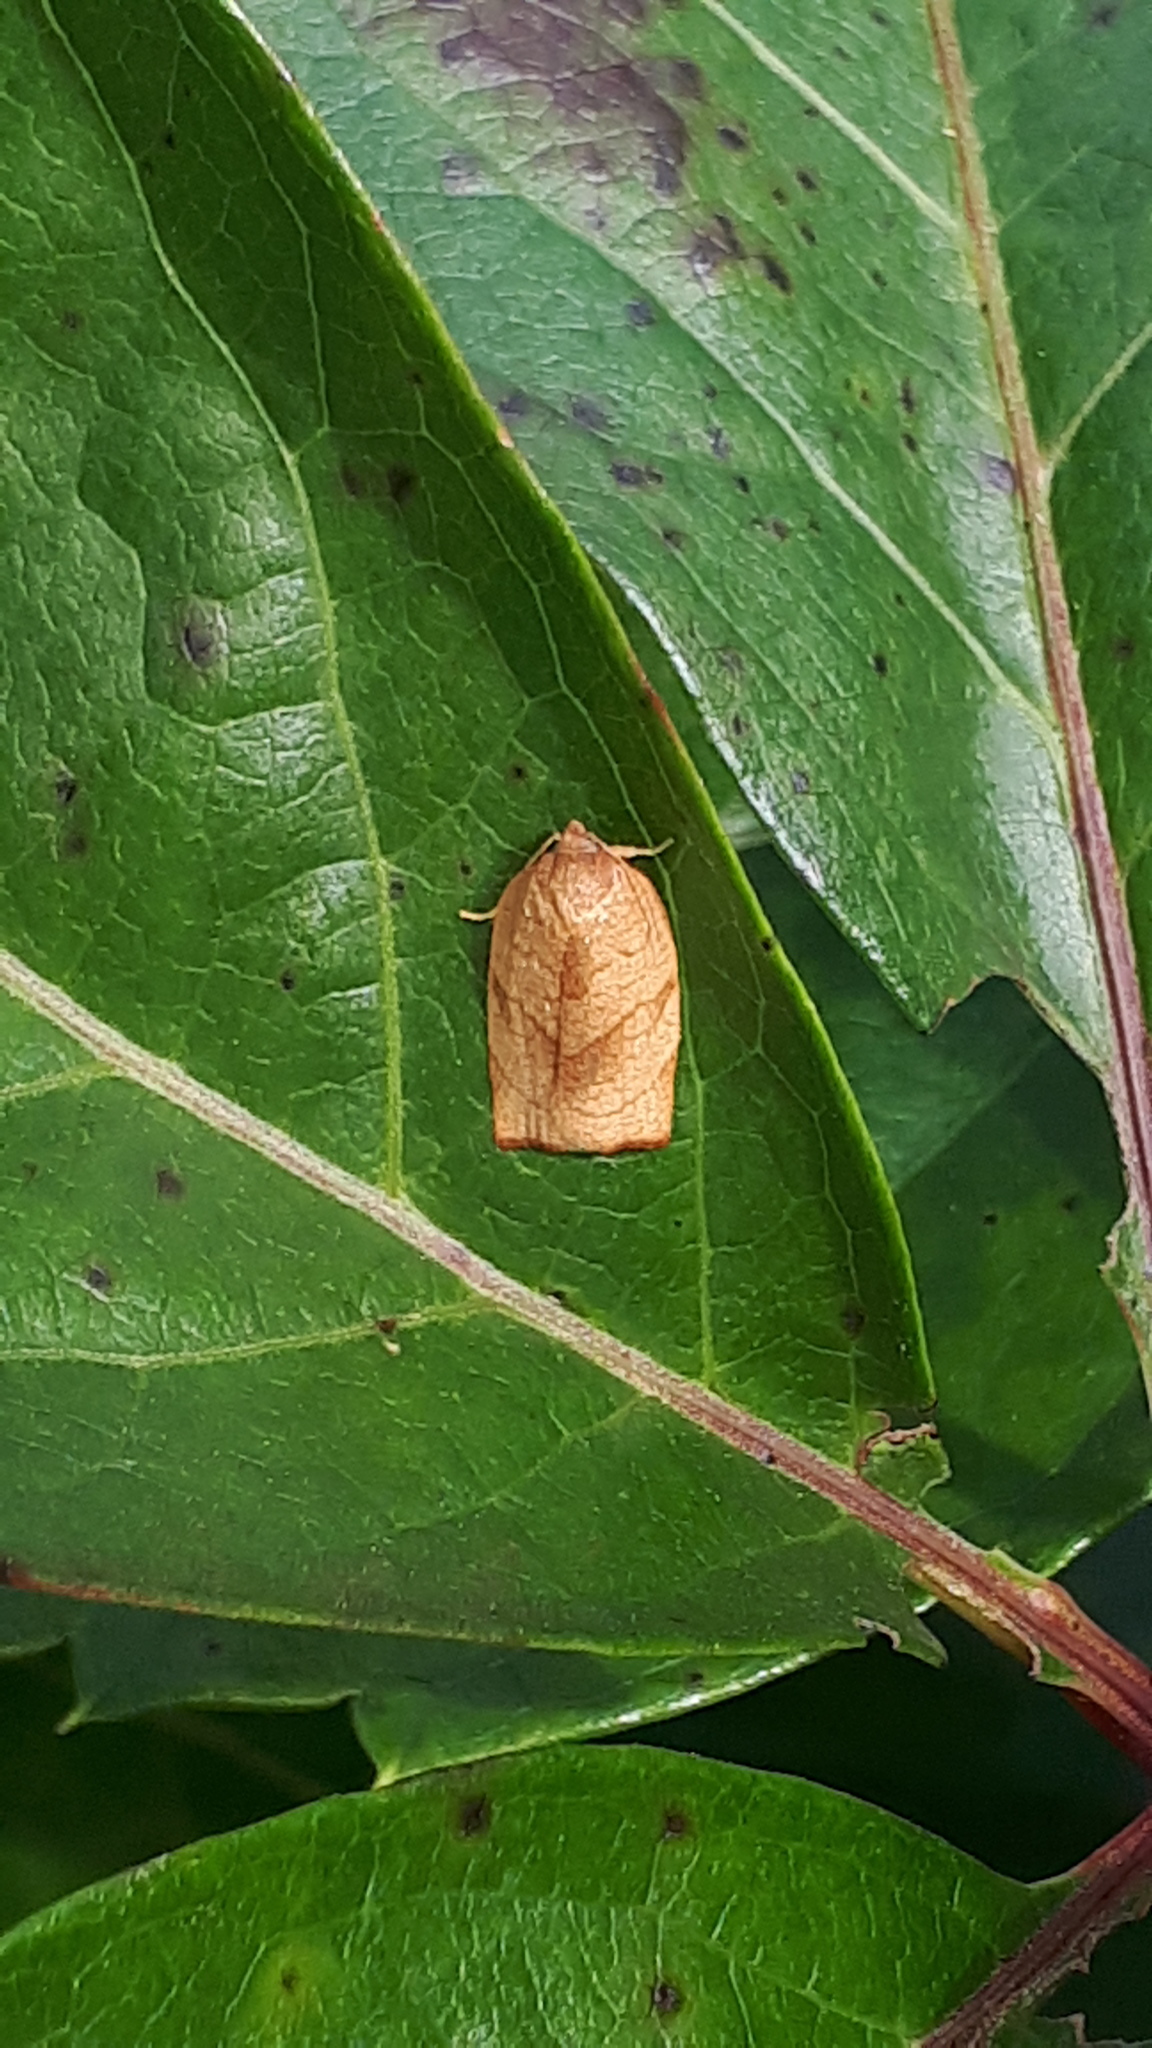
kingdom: Animalia
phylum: Arthropoda
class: Insecta
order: Lepidoptera
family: Tortricidae
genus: Cacoecimorpha
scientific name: Cacoecimorpha pronubana
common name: Carnation tortrix
